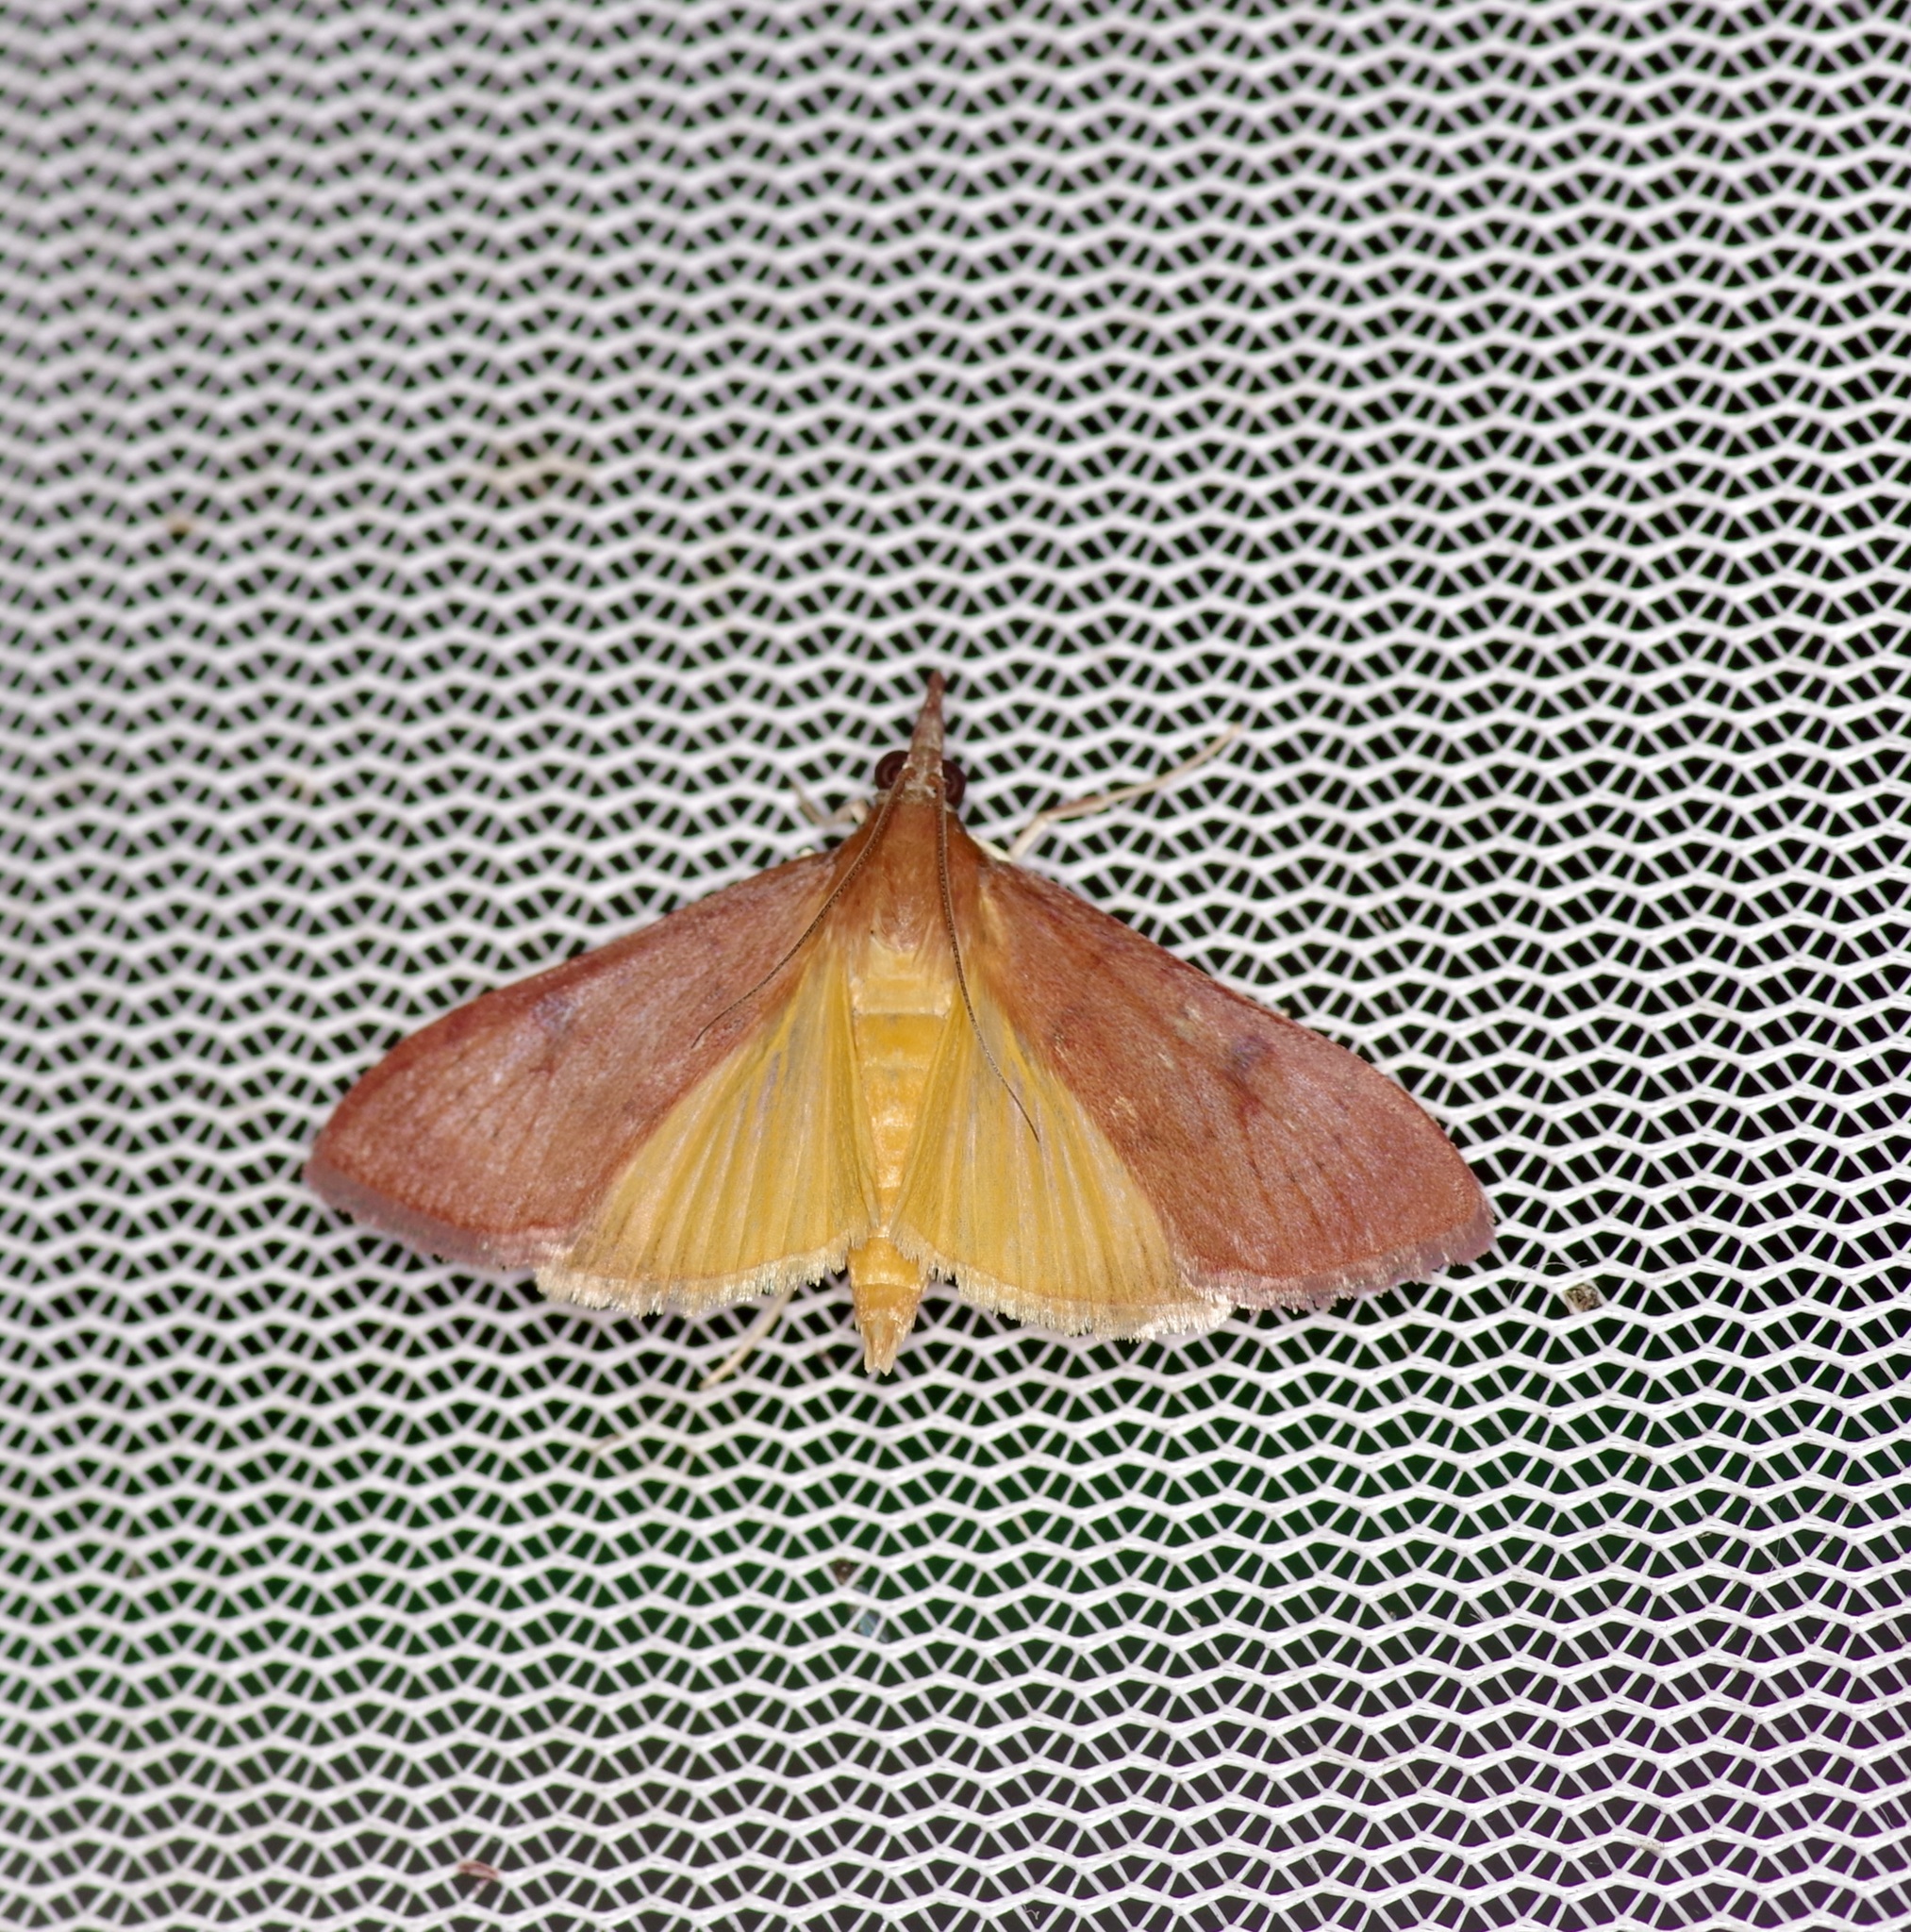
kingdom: Animalia
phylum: Arthropoda
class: Insecta
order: Lepidoptera
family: Crambidae
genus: Uresiphita
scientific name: Uresiphita reversalis
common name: Genista broom moth
